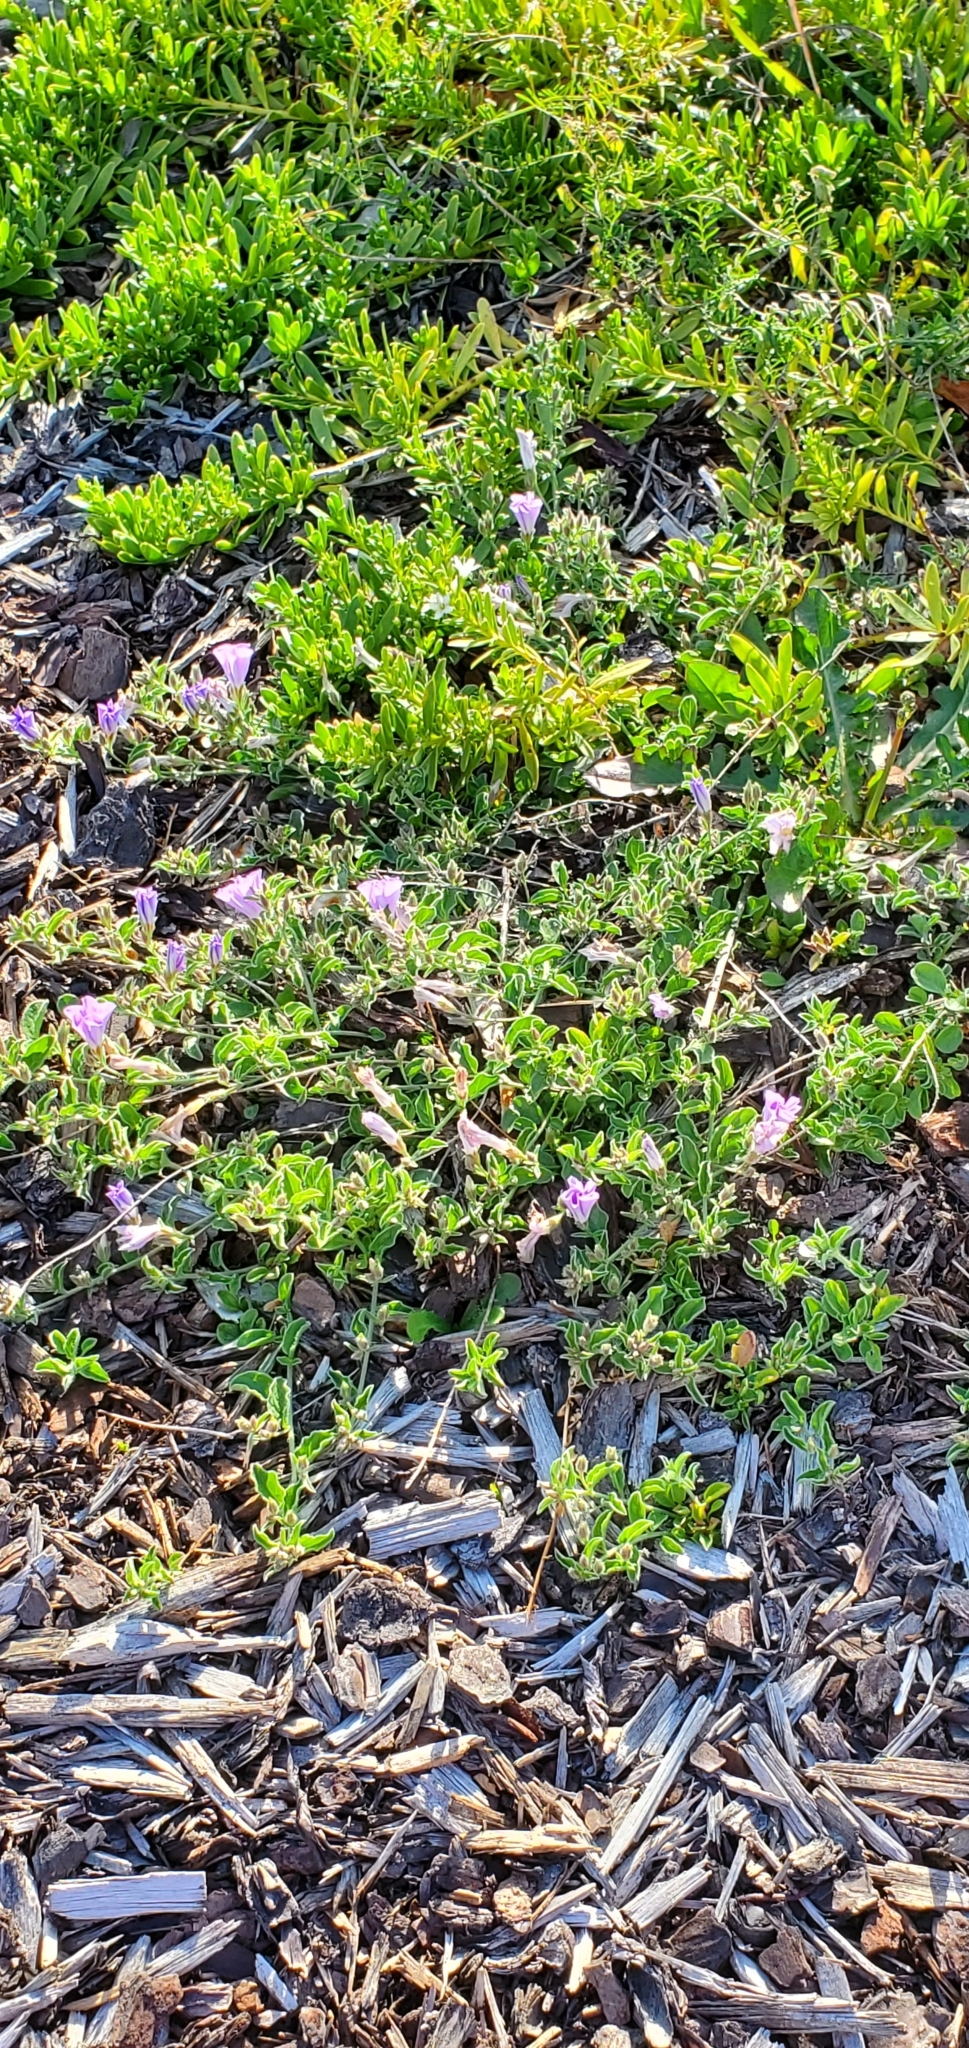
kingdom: Plantae
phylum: Tracheophyta
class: Magnoliopsida
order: Solanales
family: Convolvulaceae
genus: Convolvulus
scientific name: Convolvulus
